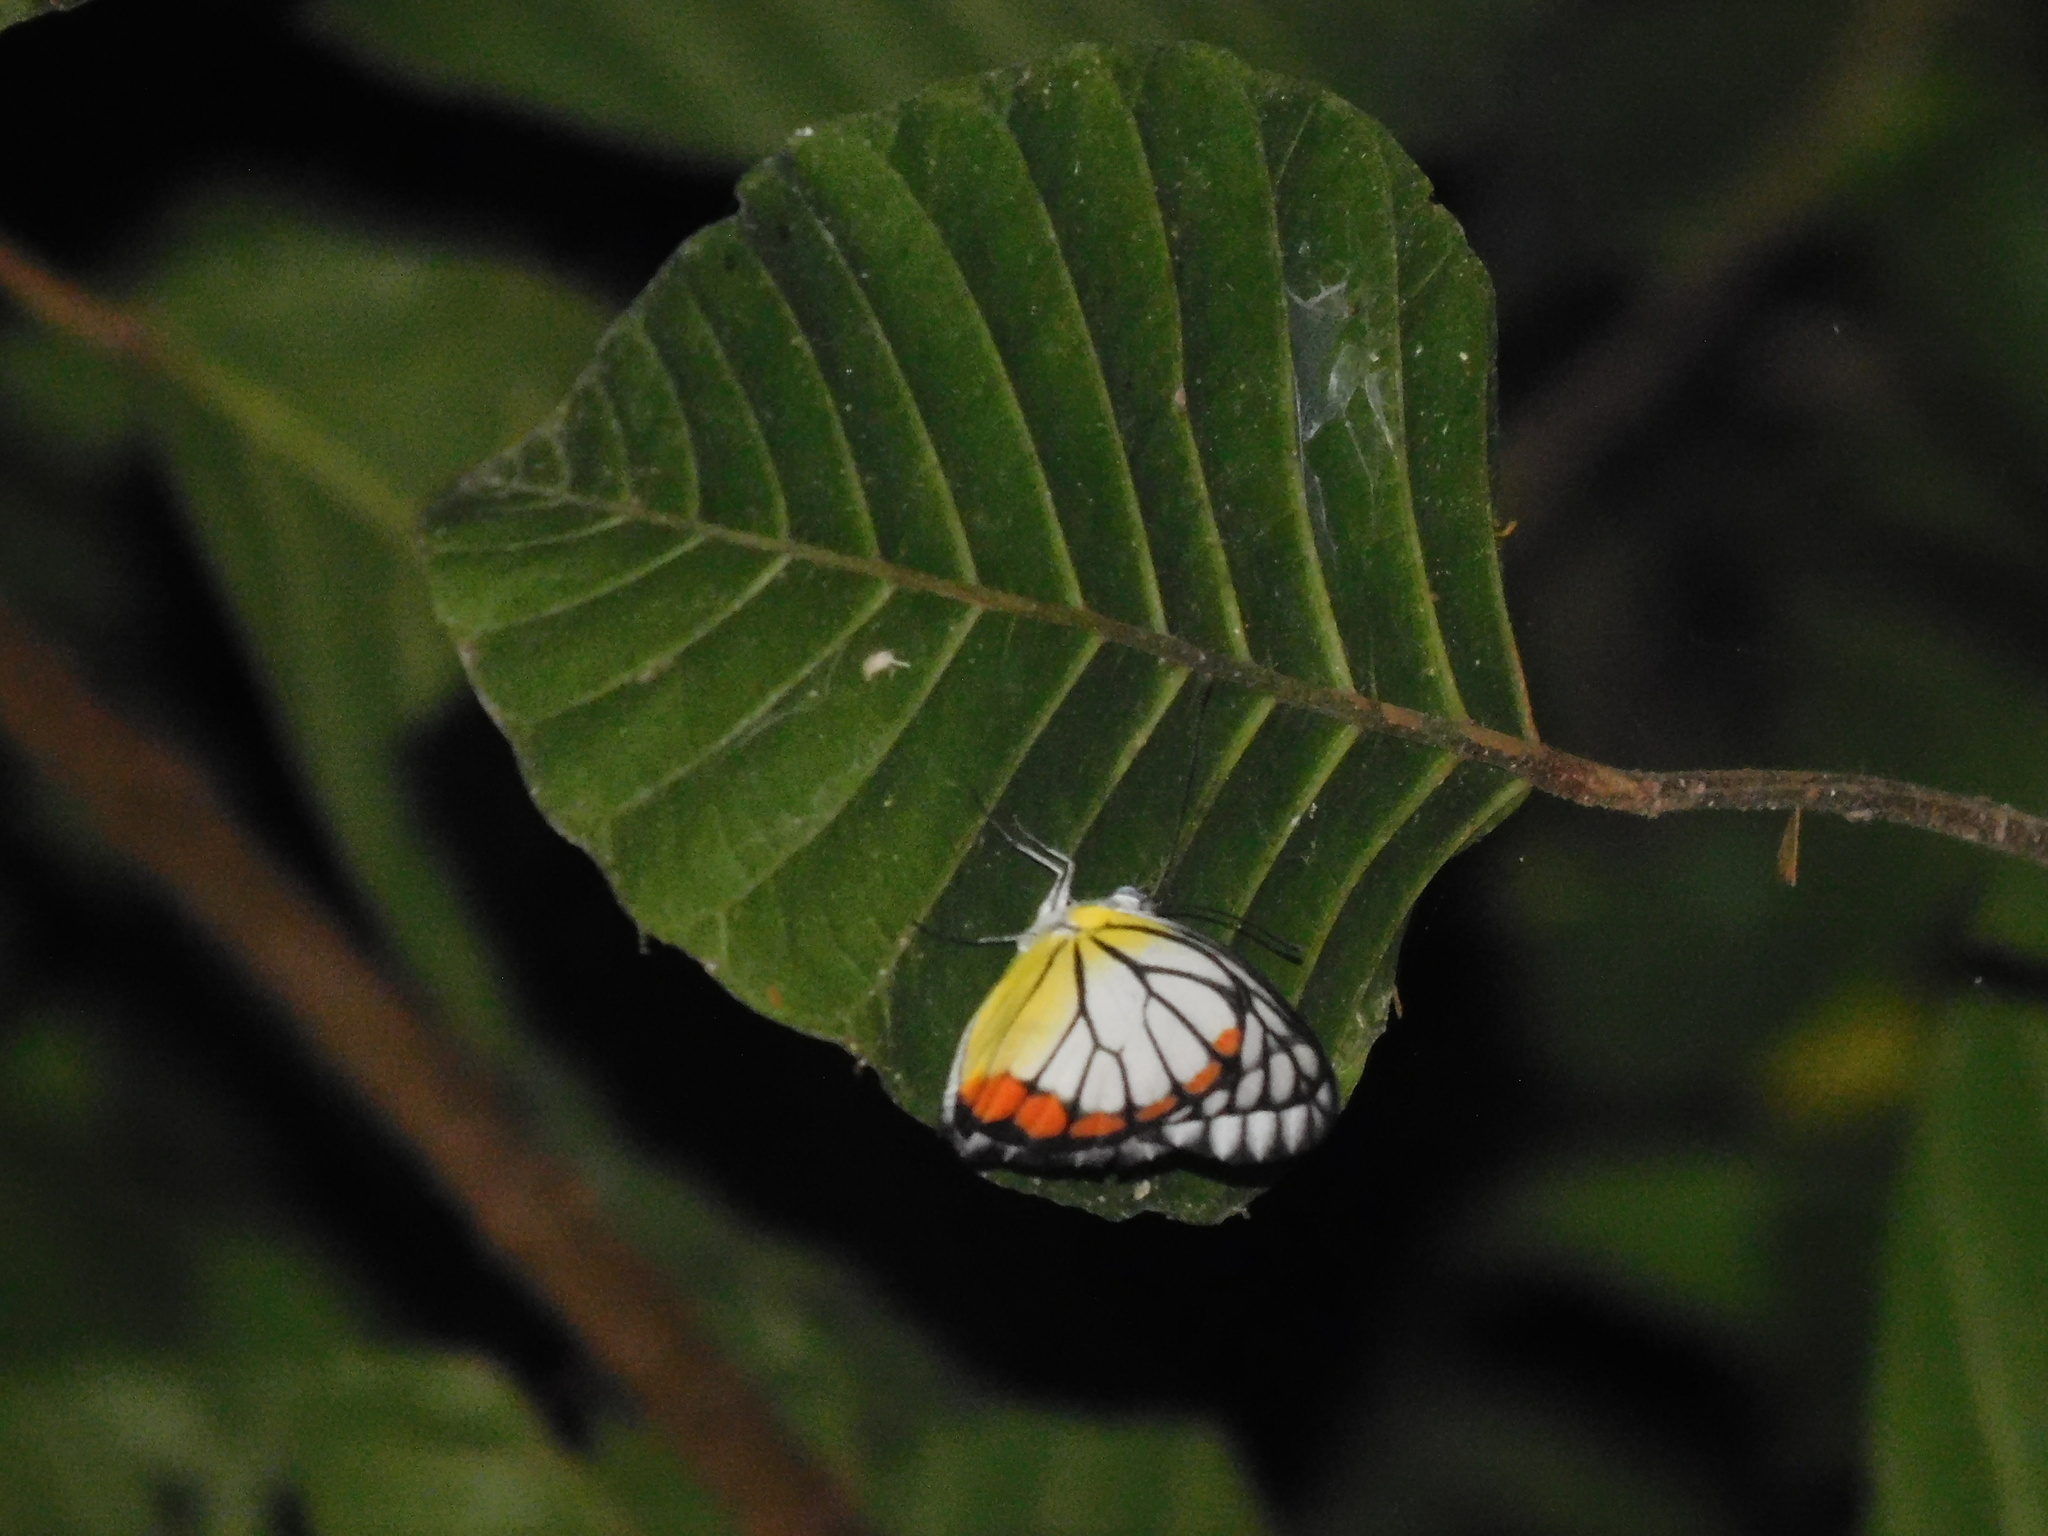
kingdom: Animalia
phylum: Arthropoda
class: Insecta
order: Lepidoptera
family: Pieridae
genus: Delias
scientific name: Delias hyparete
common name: Painted jezebel
